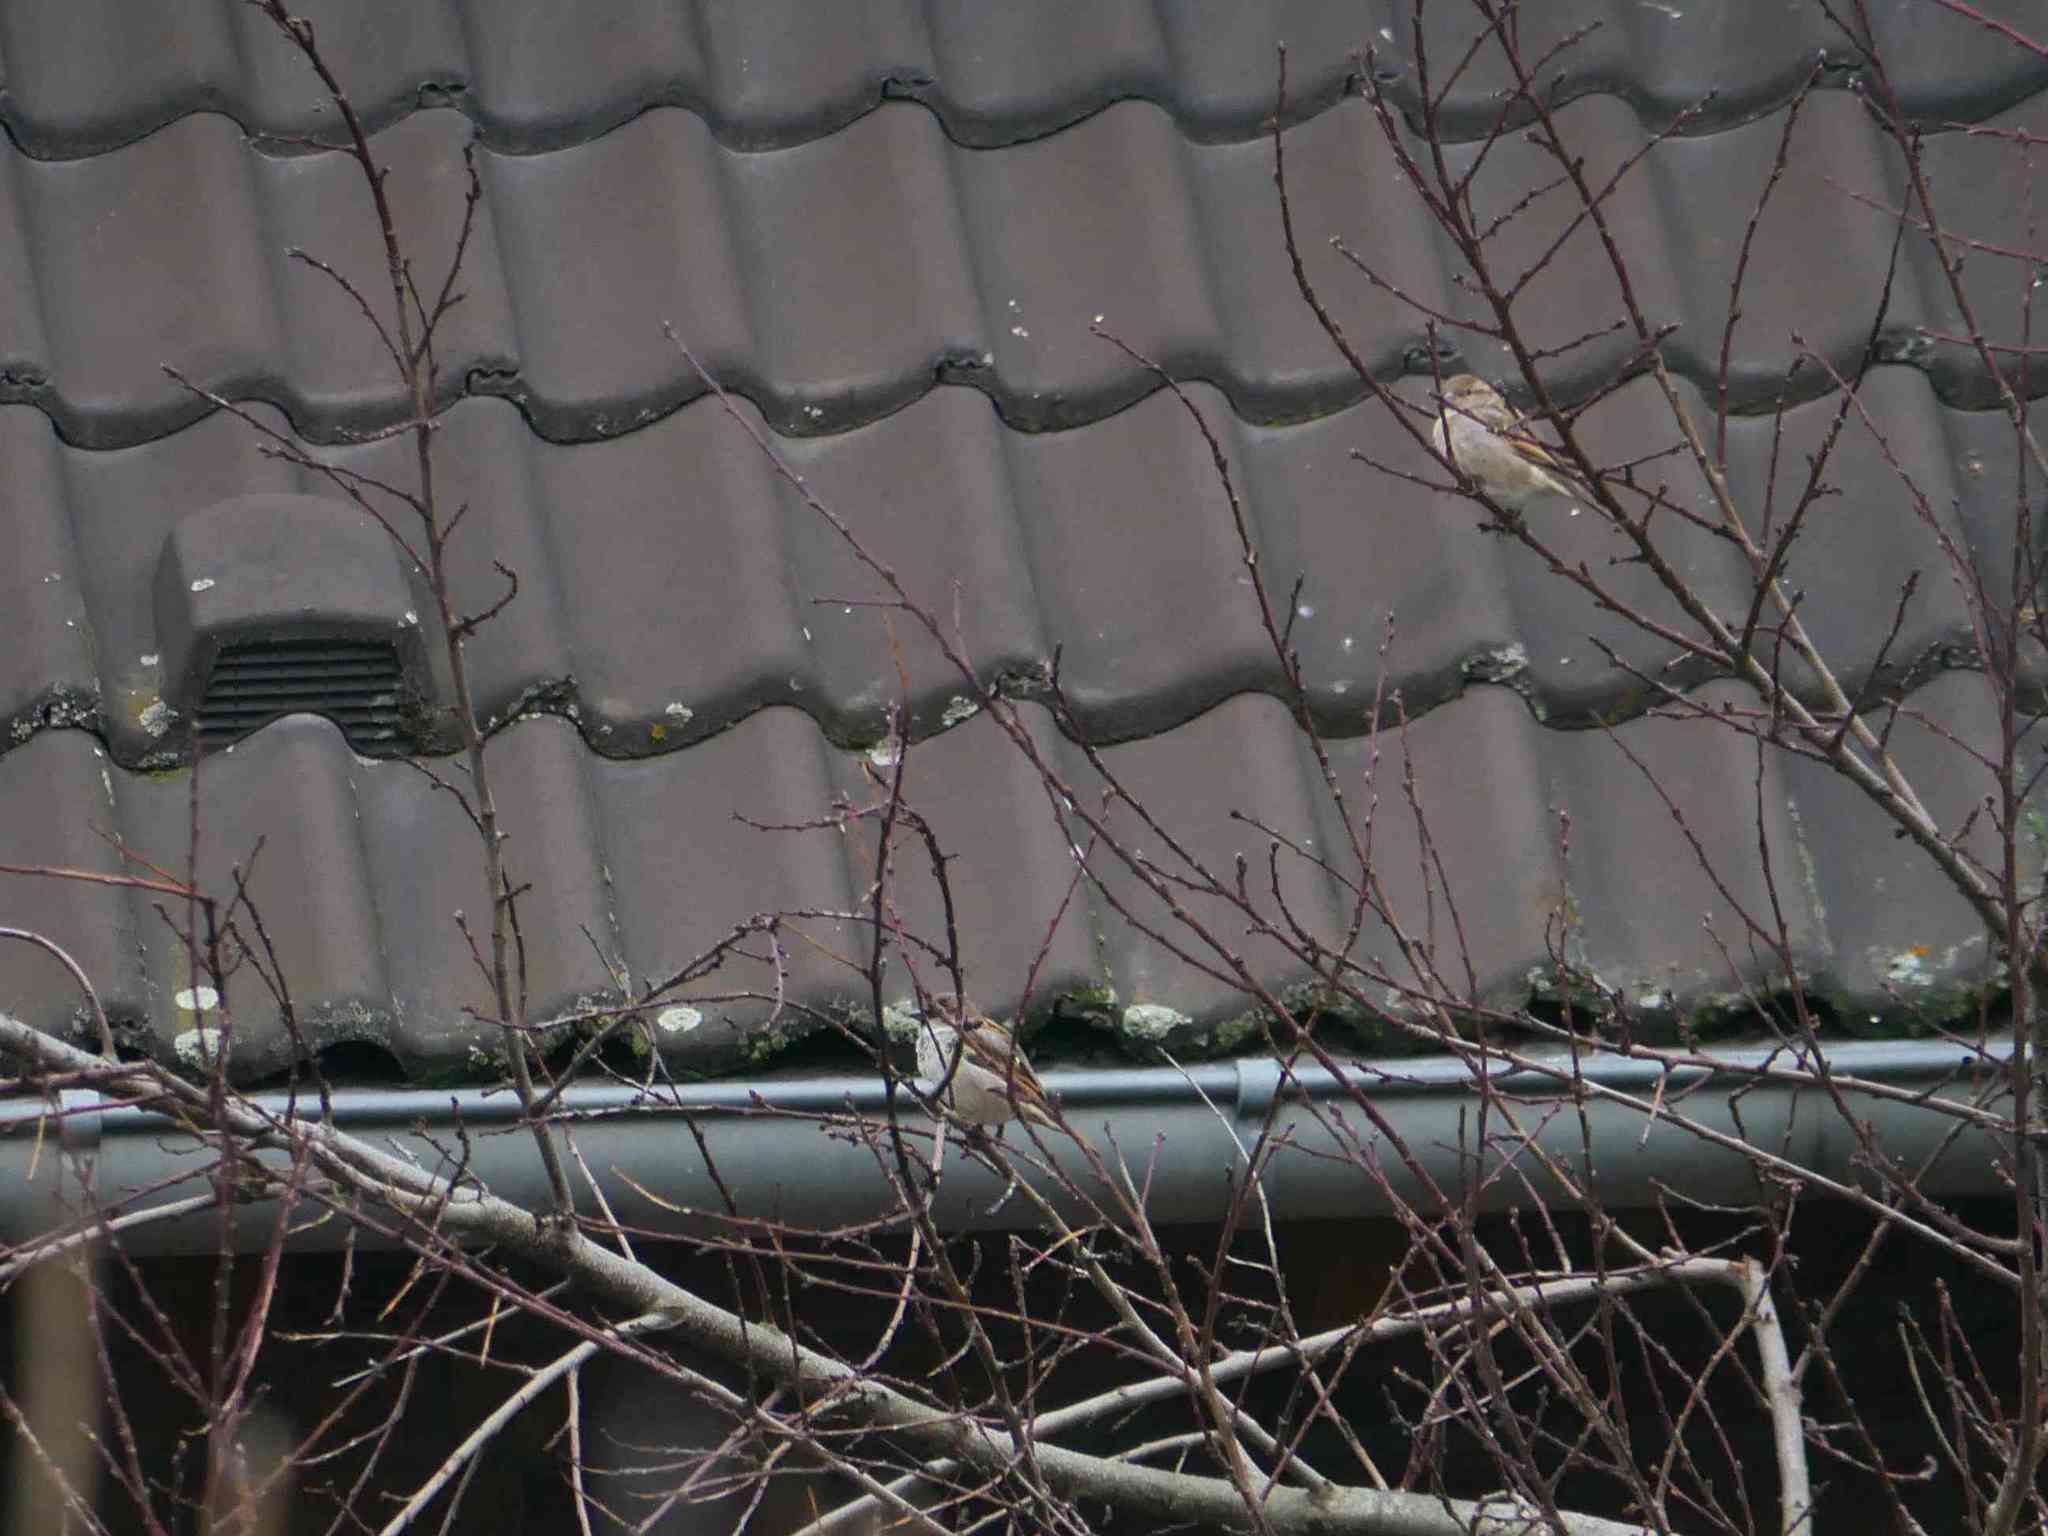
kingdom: Animalia
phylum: Chordata
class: Aves
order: Passeriformes
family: Passeridae
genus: Passer
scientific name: Passer domesticus
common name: House sparrow
